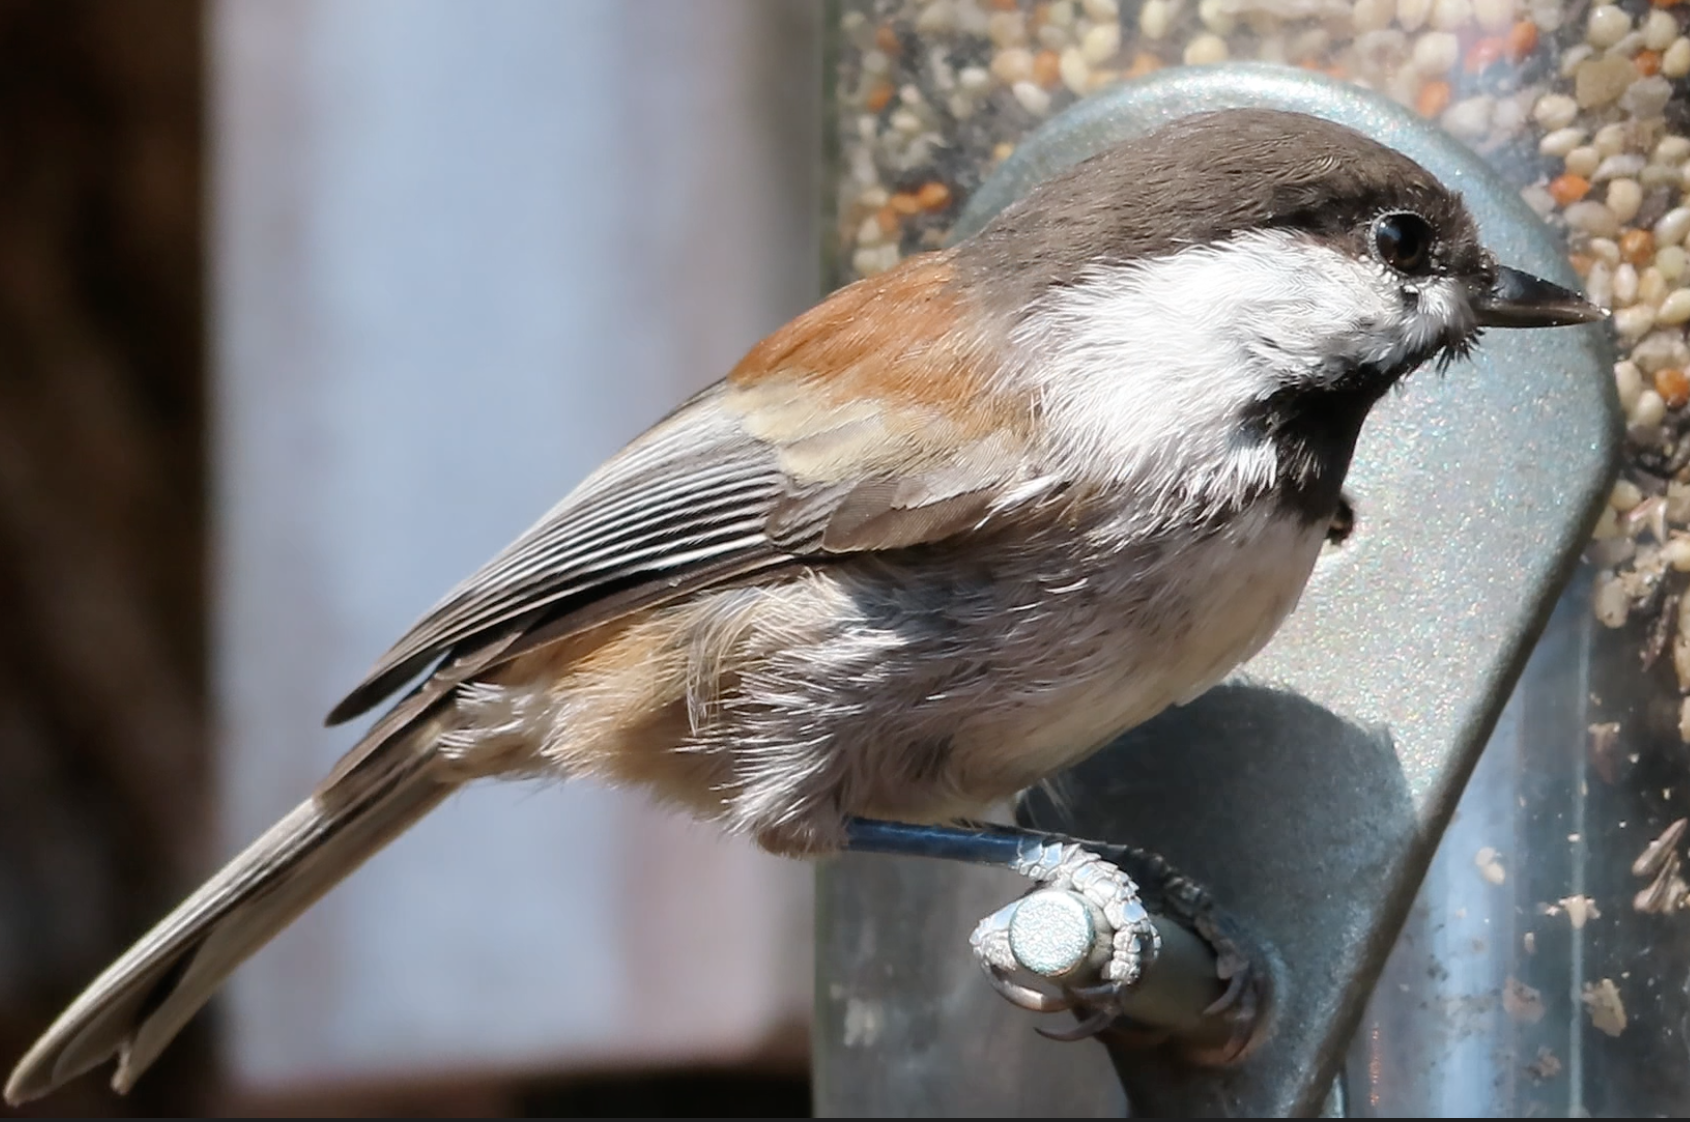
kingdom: Animalia
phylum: Chordata
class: Aves
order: Passeriformes
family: Paridae
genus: Poecile
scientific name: Poecile rufescens
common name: Chestnut-backed chickadee
